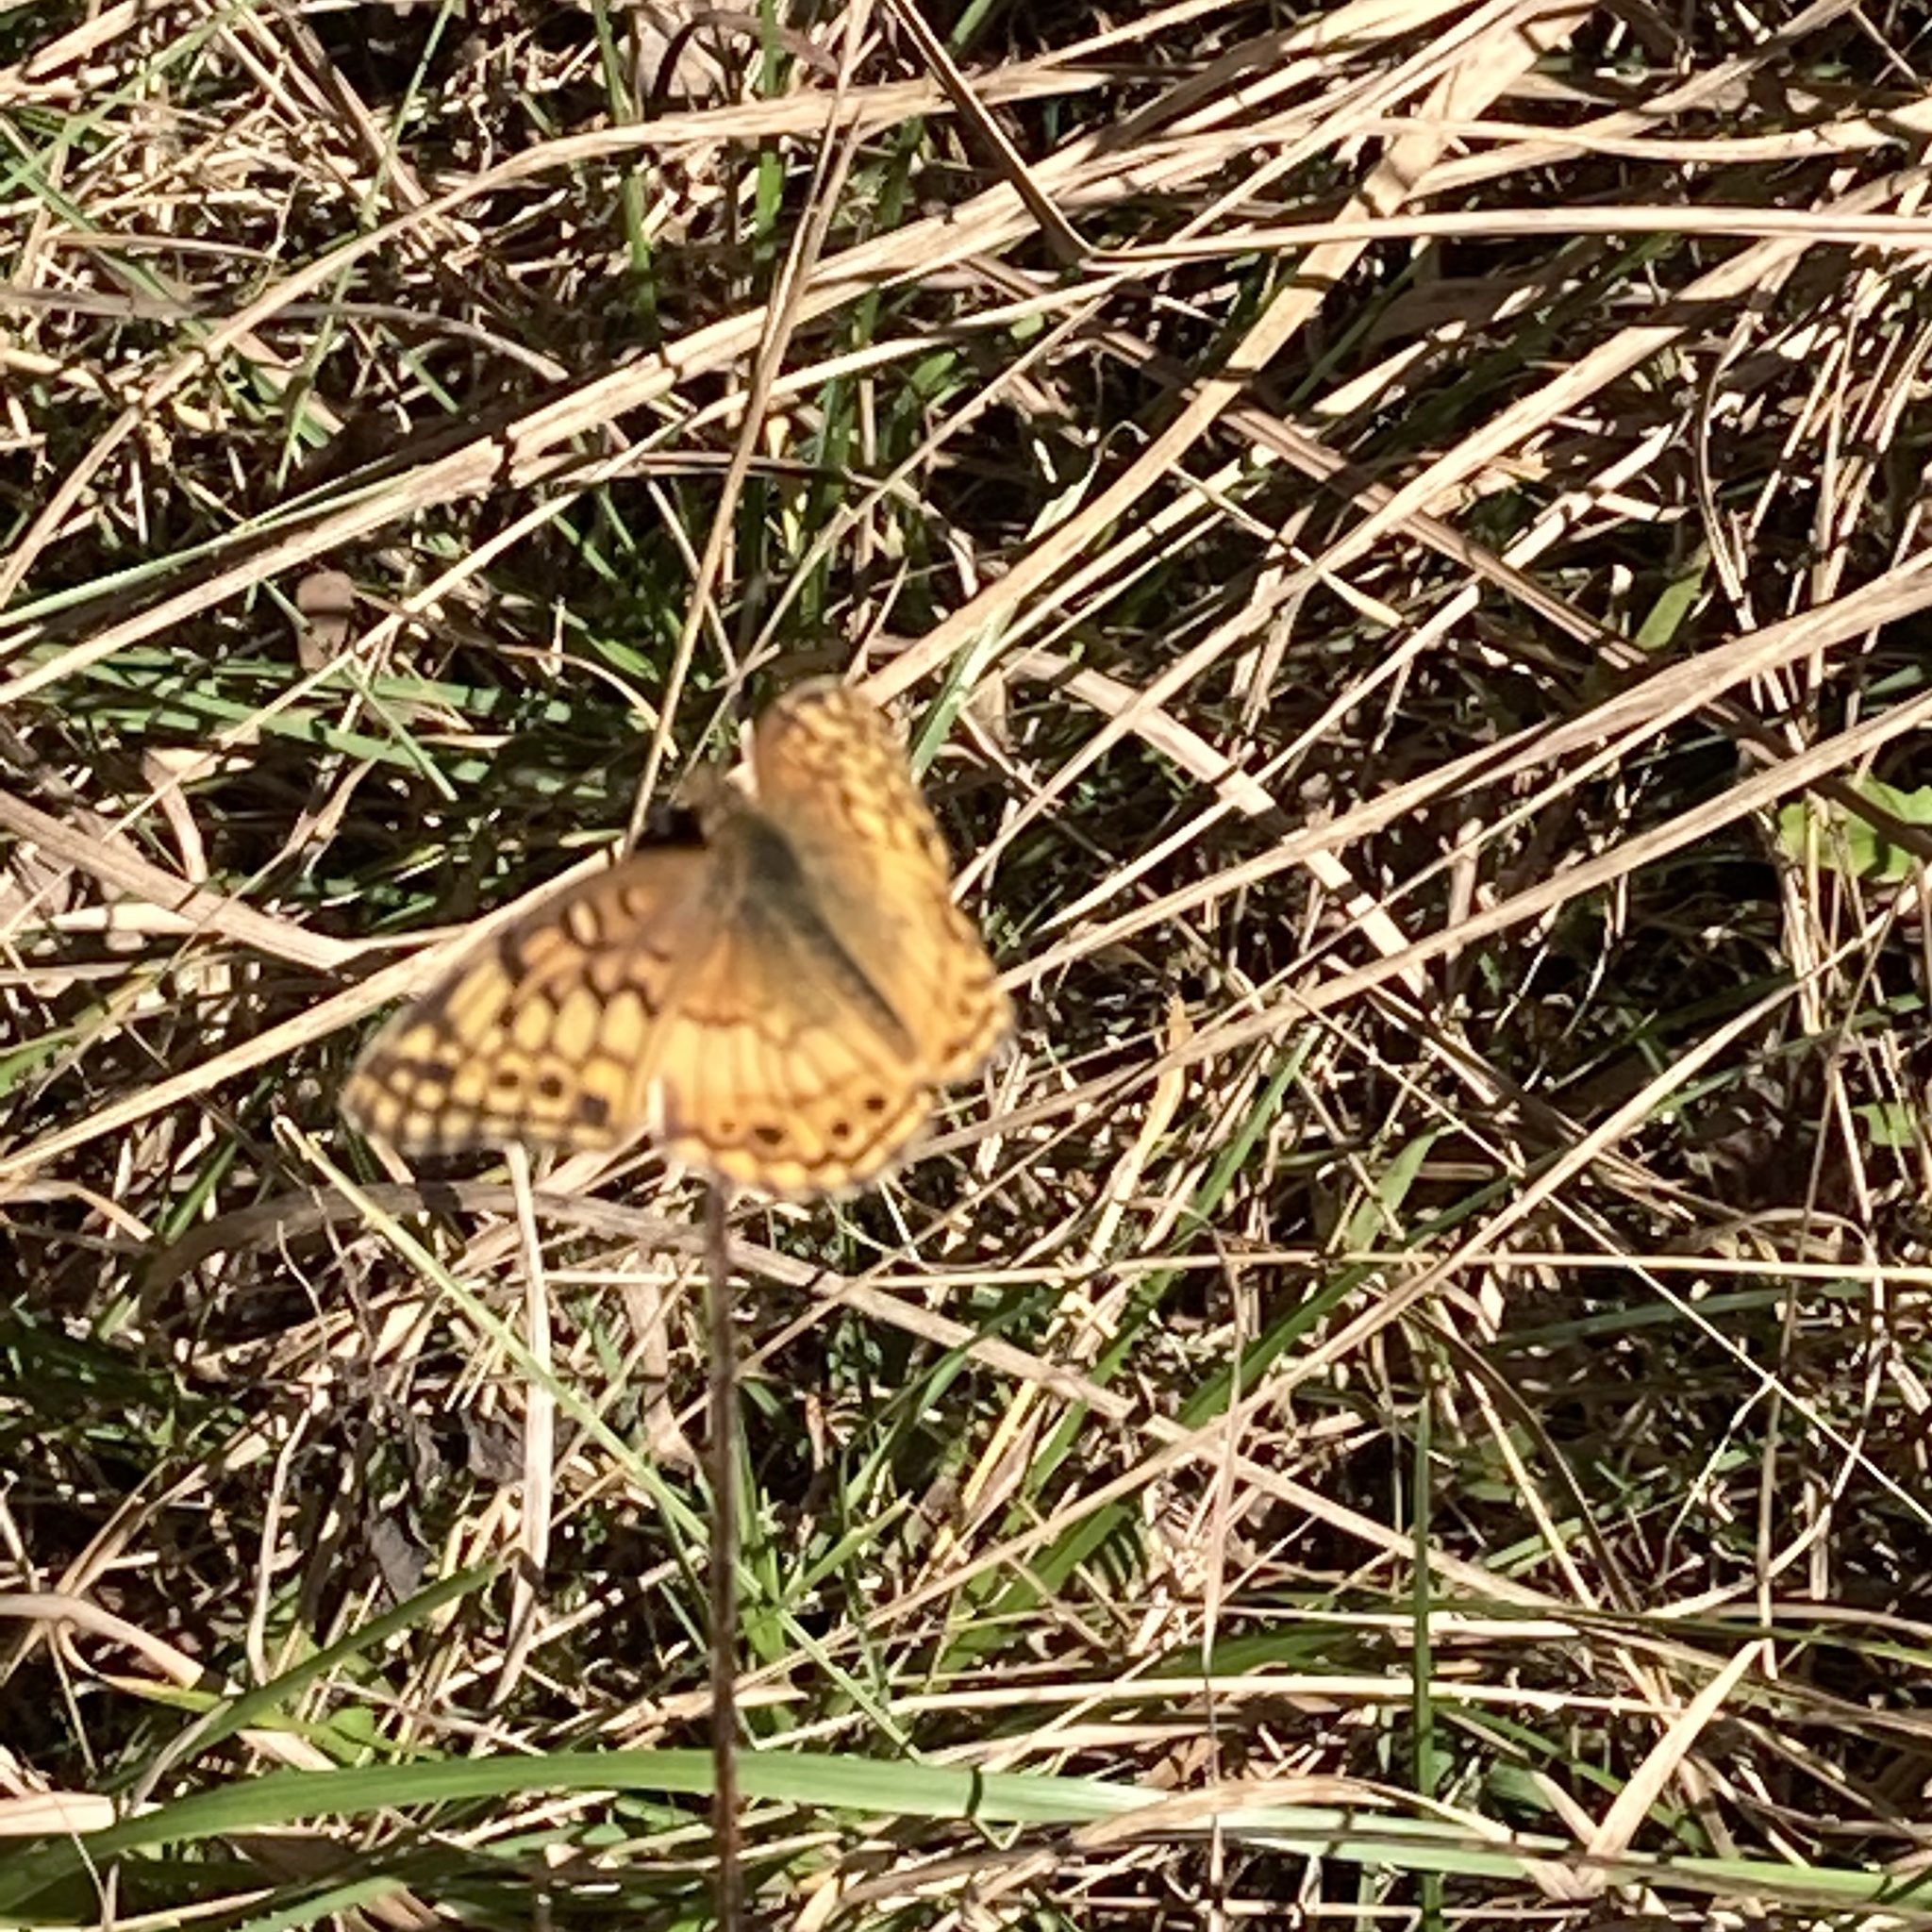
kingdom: Animalia
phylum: Arthropoda
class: Insecta
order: Lepidoptera
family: Nymphalidae
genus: Euptoieta
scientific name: Euptoieta claudia
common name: Variegated fritillary
